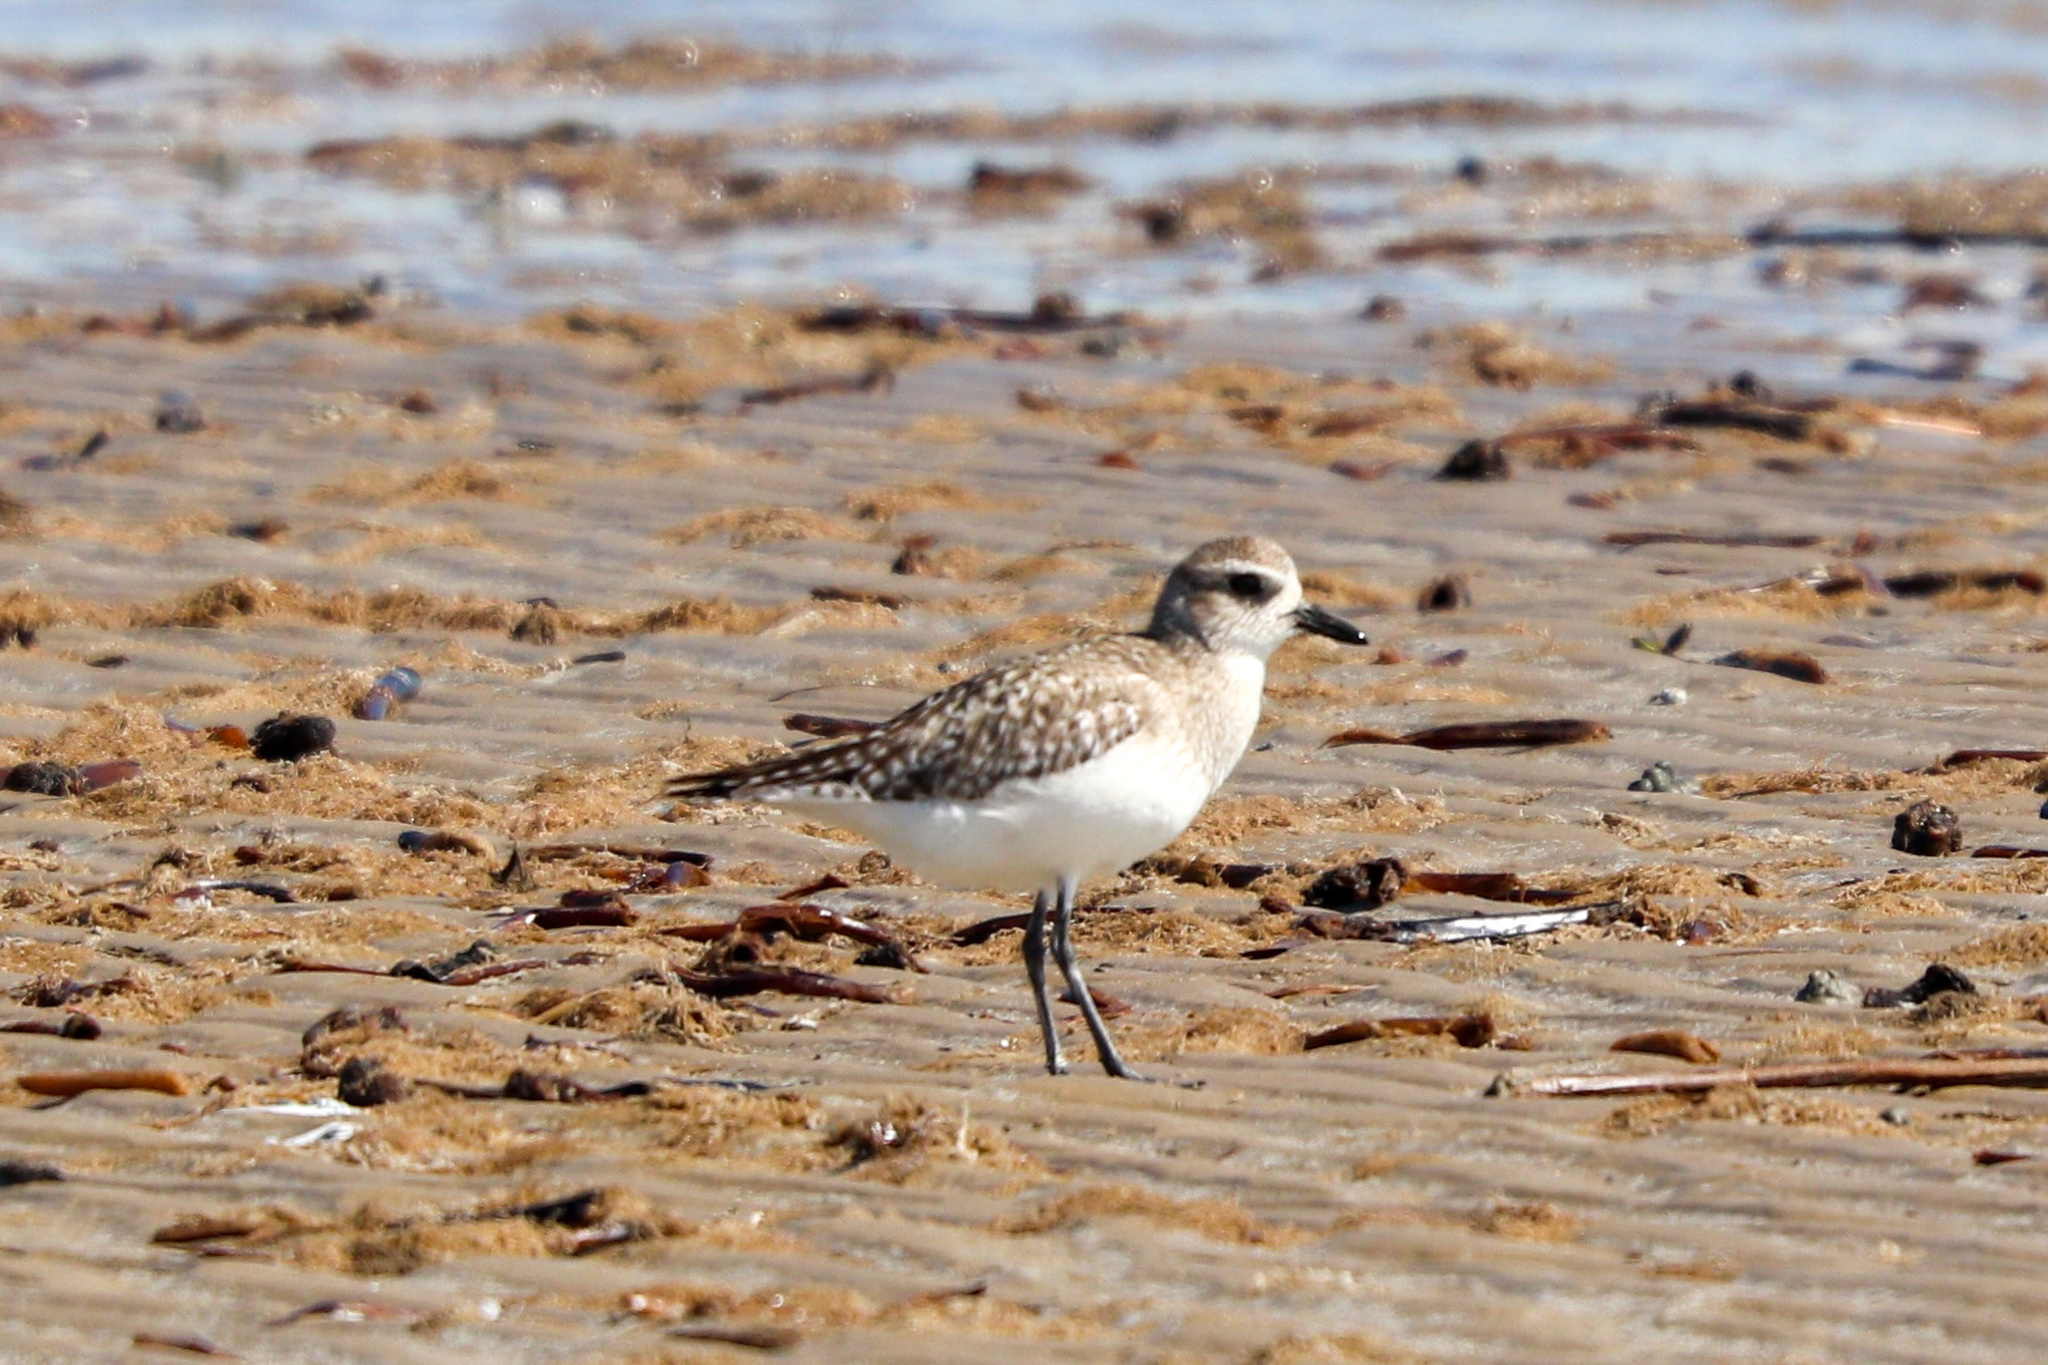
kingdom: Animalia
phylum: Chordata
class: Aves
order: Charadriiformes
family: Charadriidae
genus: Pluvialis
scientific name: Pluvialis squatarola
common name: Grey plover
